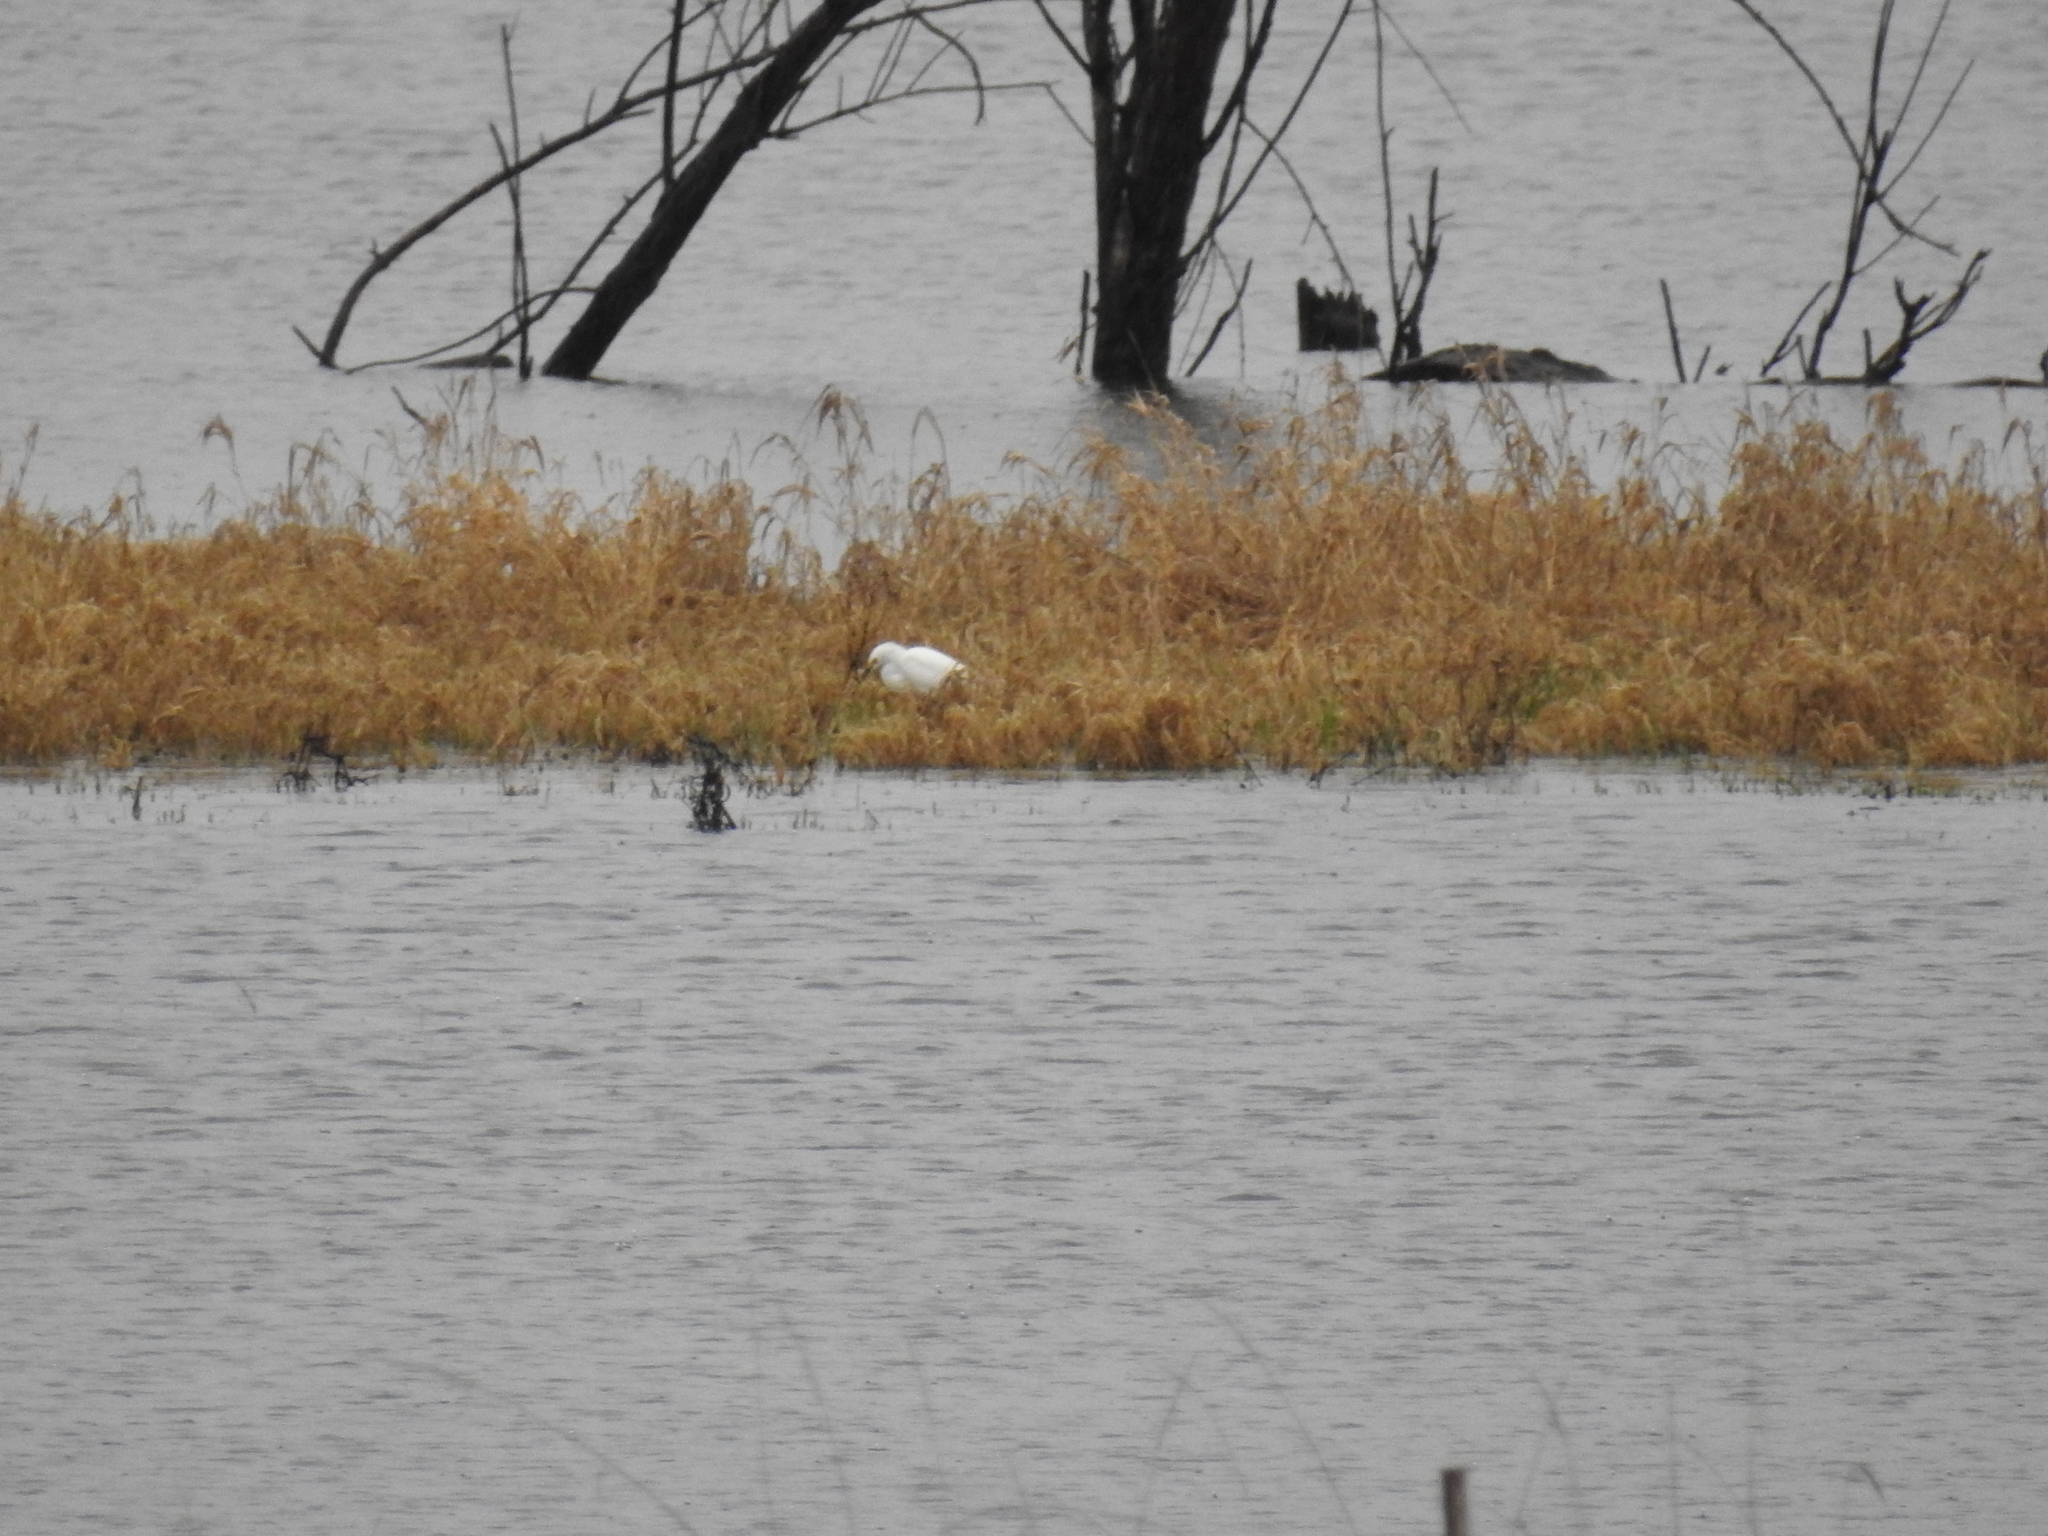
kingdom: Animalia
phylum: Chordata
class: Aves
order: Pelecaniformes
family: Ardeidae
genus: Egretta
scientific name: Egretta thula
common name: Snowy egret
